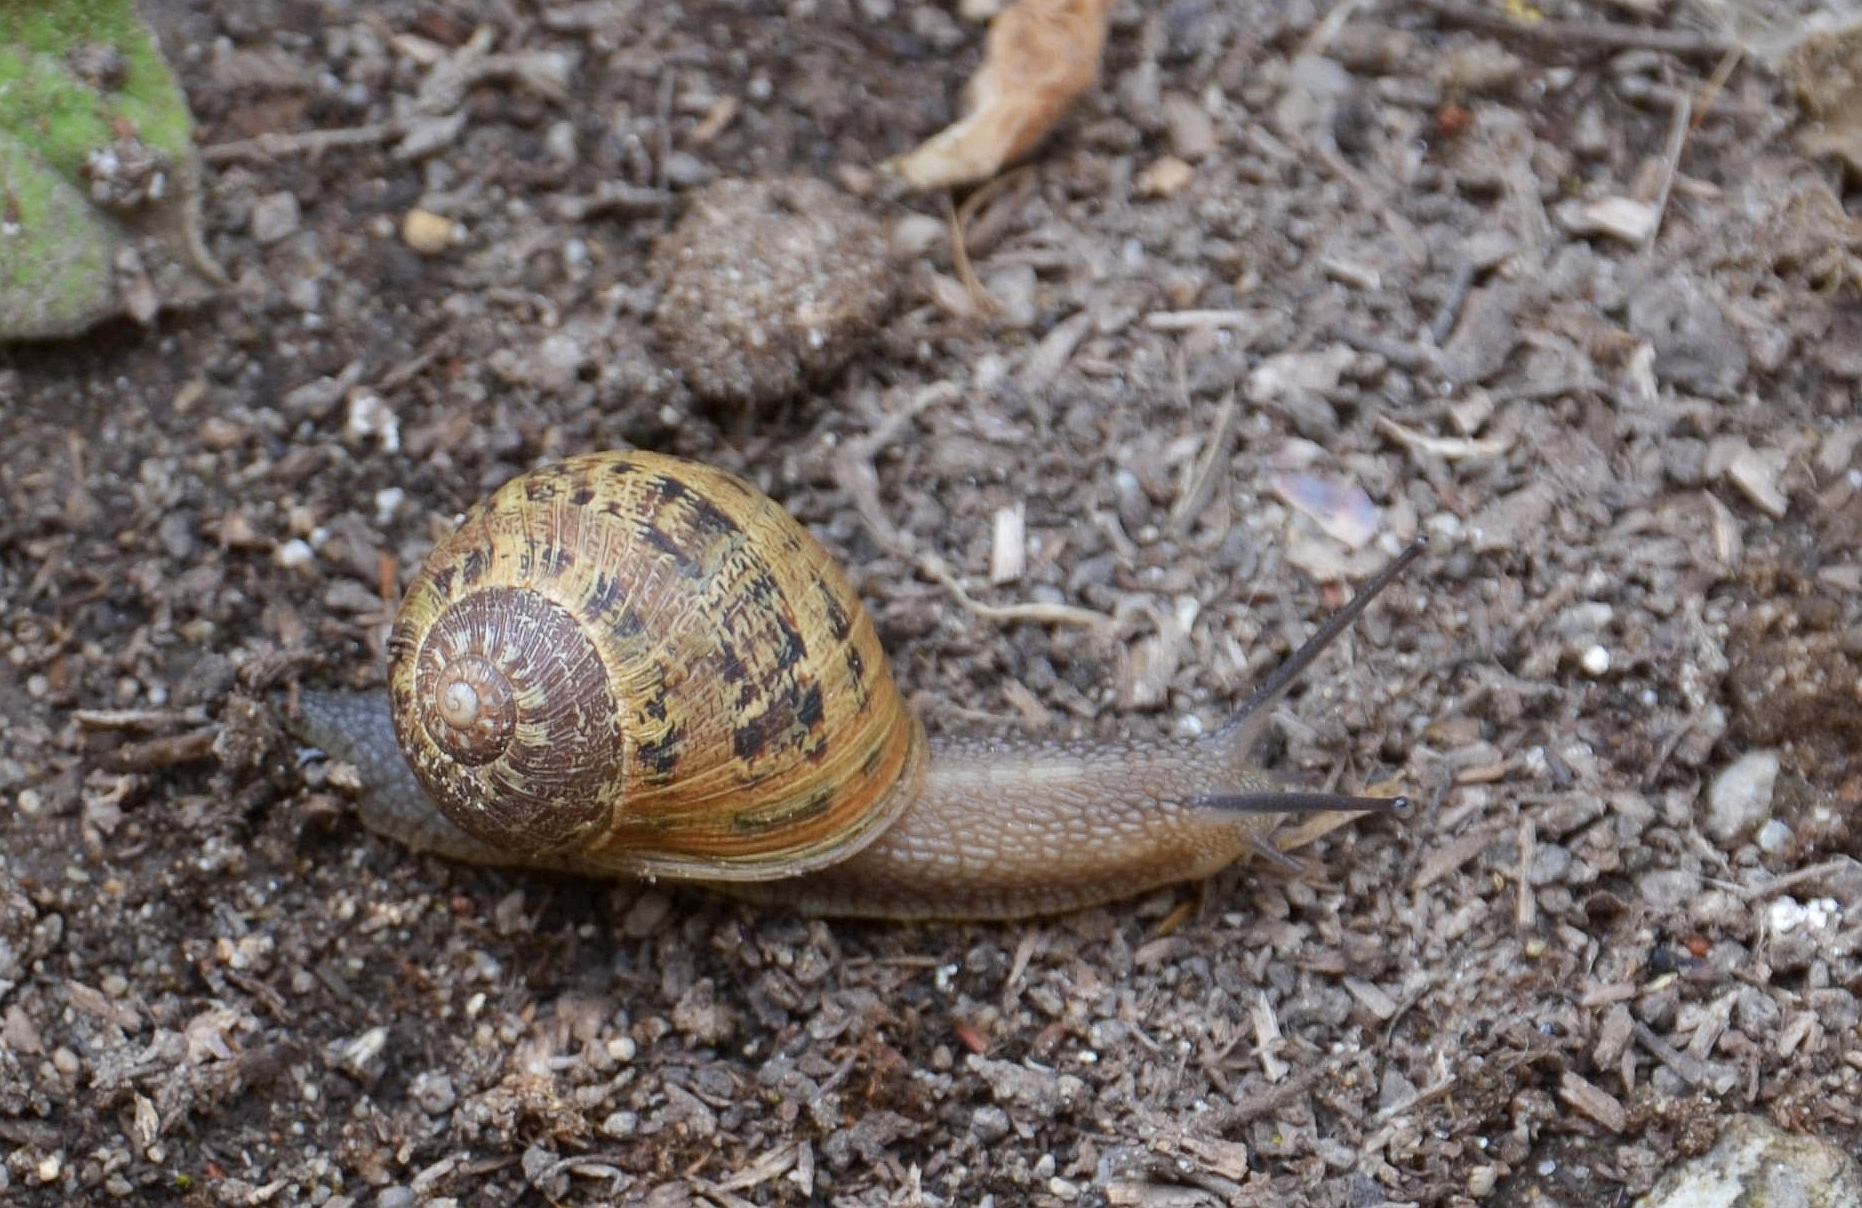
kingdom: Animalia
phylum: Mollusca
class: Gastropoda
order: Stylommatophora
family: Helicidae
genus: Cornu
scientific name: Cornu aspersum
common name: Brown garden snail
